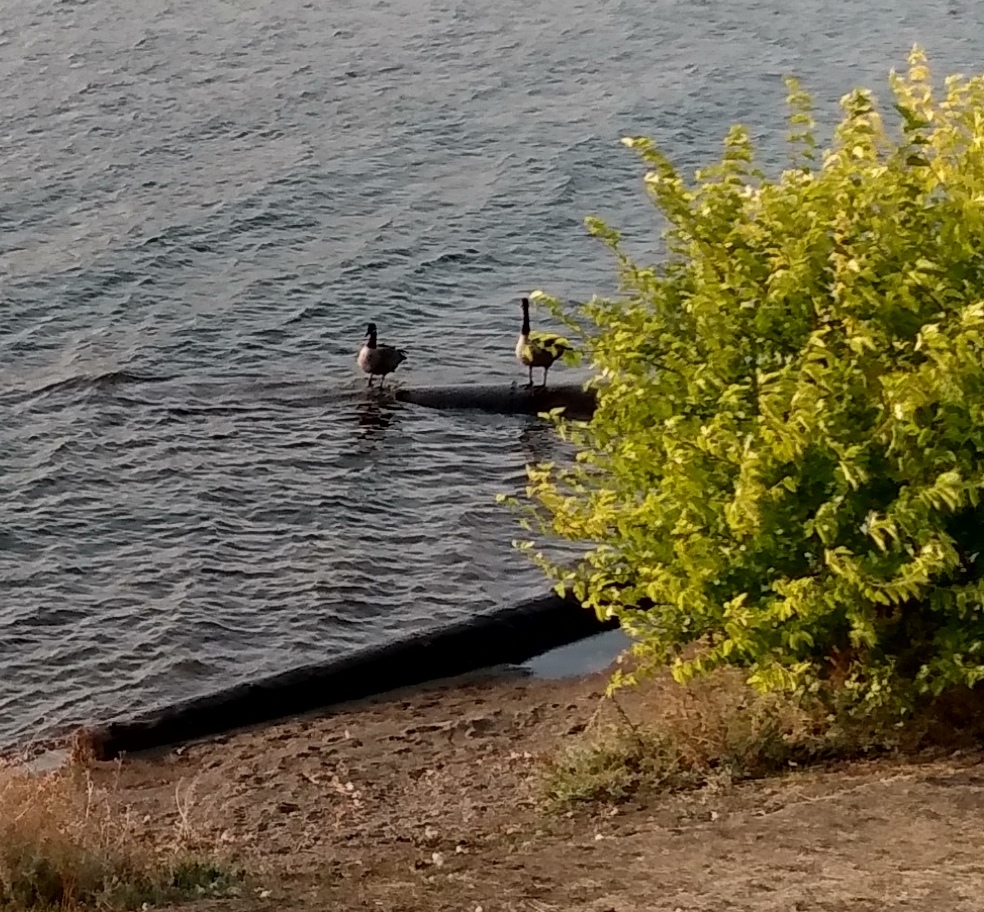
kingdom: Animalia
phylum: Chordata
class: Aves
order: Anseriformes
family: Anatidae
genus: Branta
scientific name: Branta canadensis
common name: Canada goose
